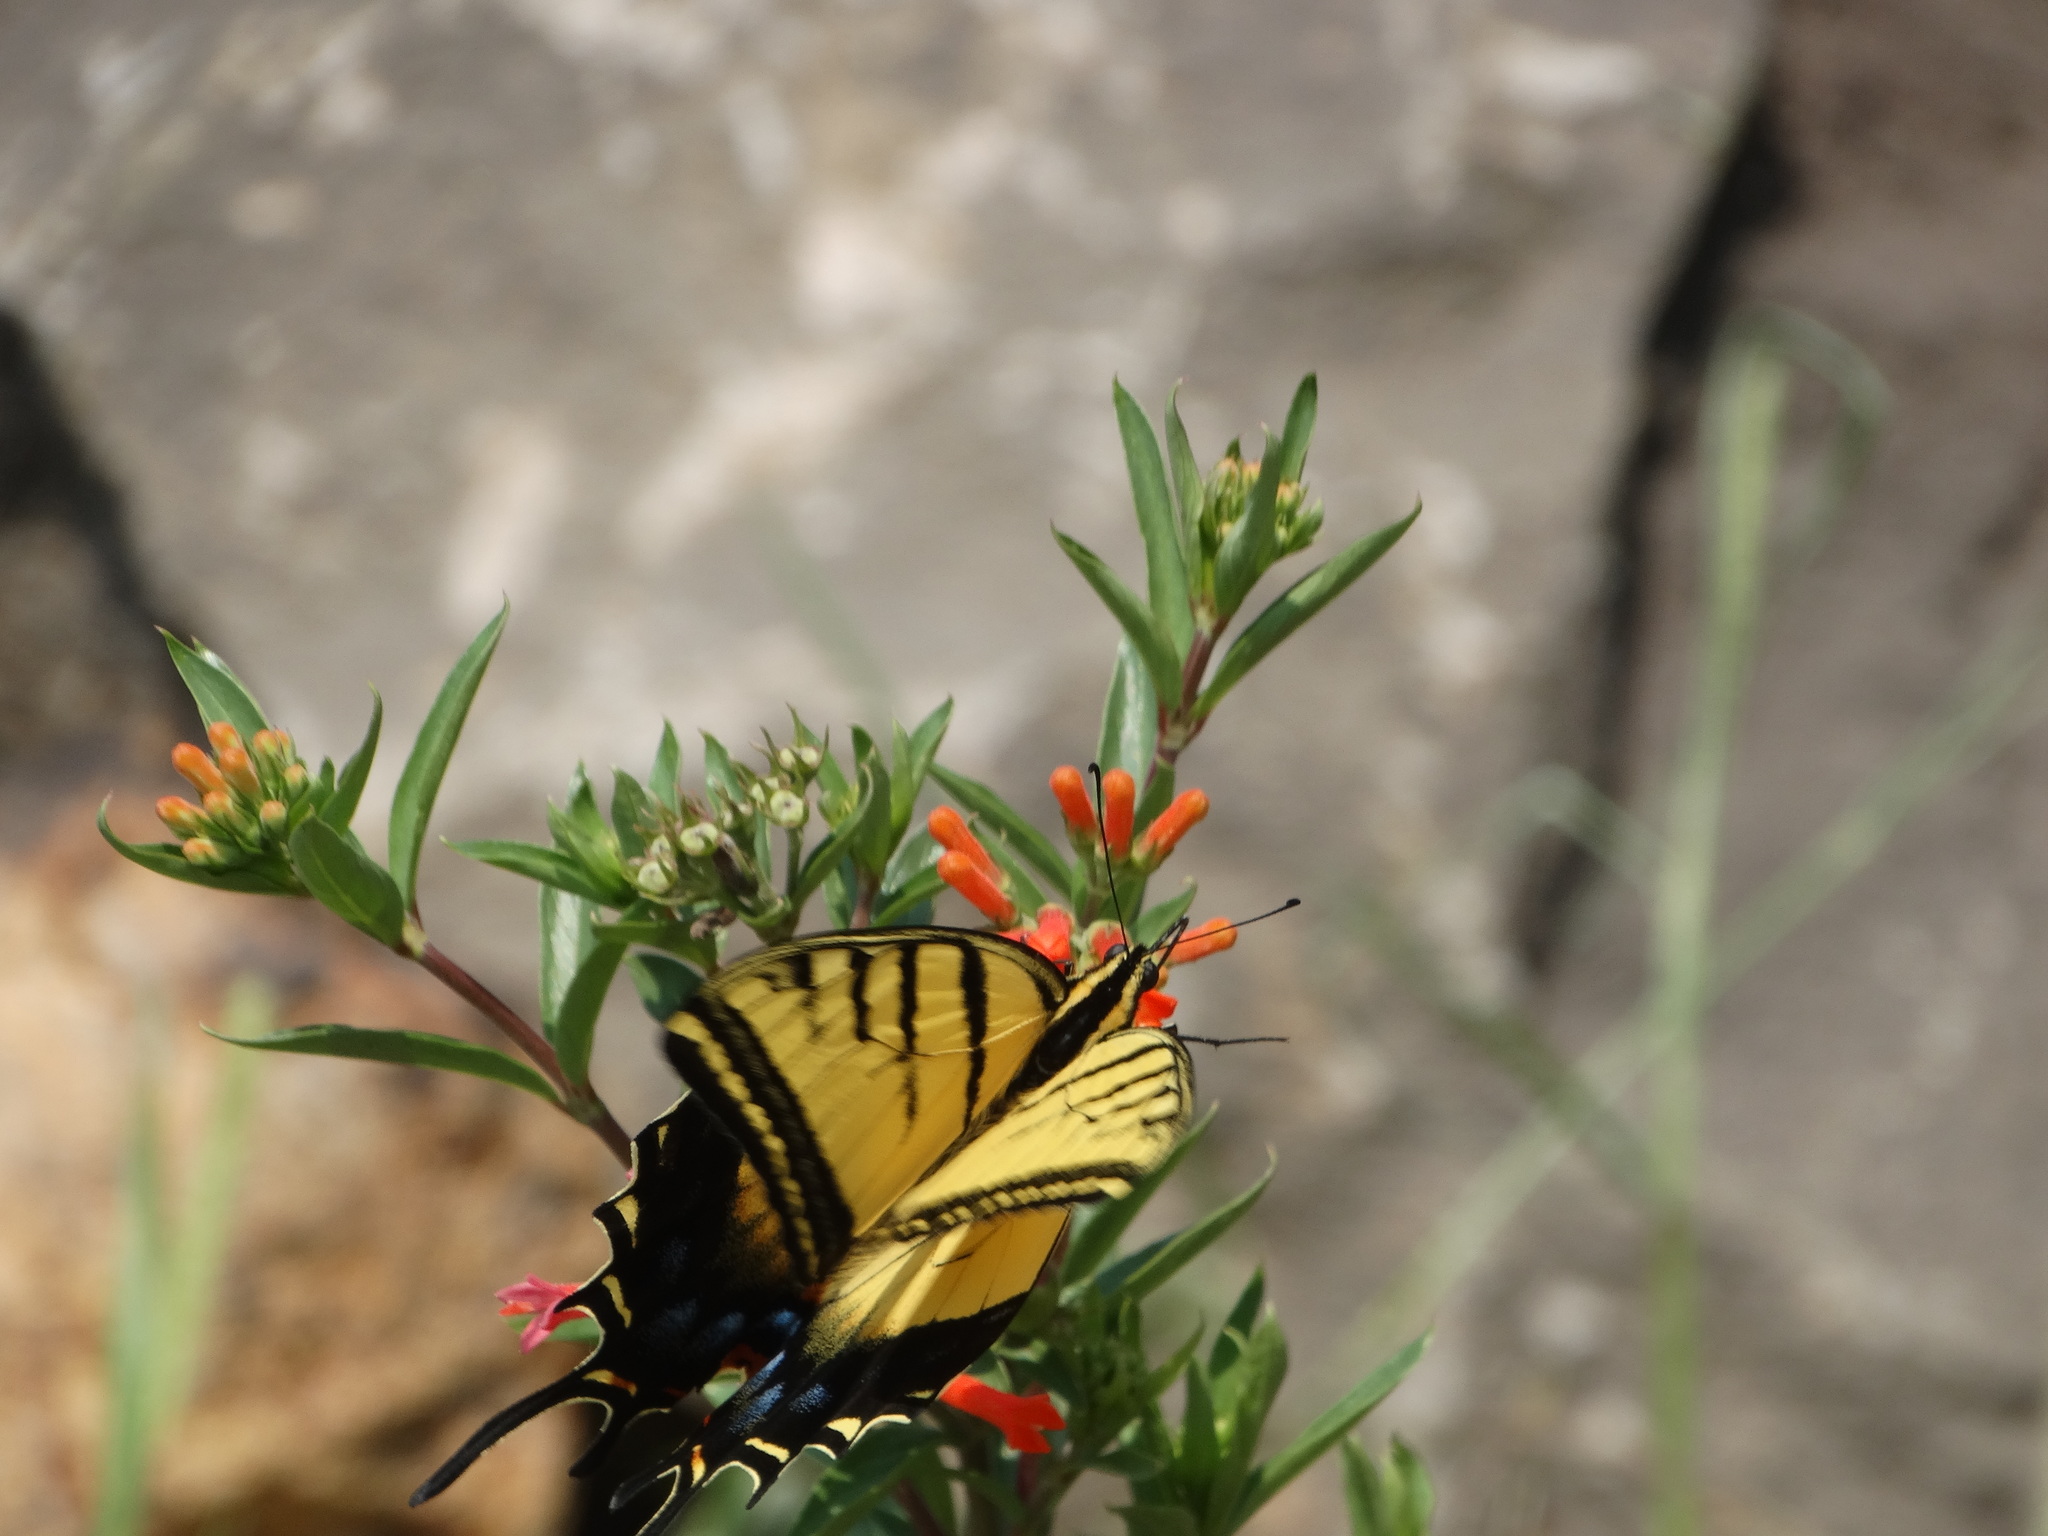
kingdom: Animalia
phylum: Arthropoda
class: Insecta
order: Lepidoptera
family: Papilionidae
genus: Papilio
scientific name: Papilio multicaudata
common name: Two-tailed tiger swallowtail
